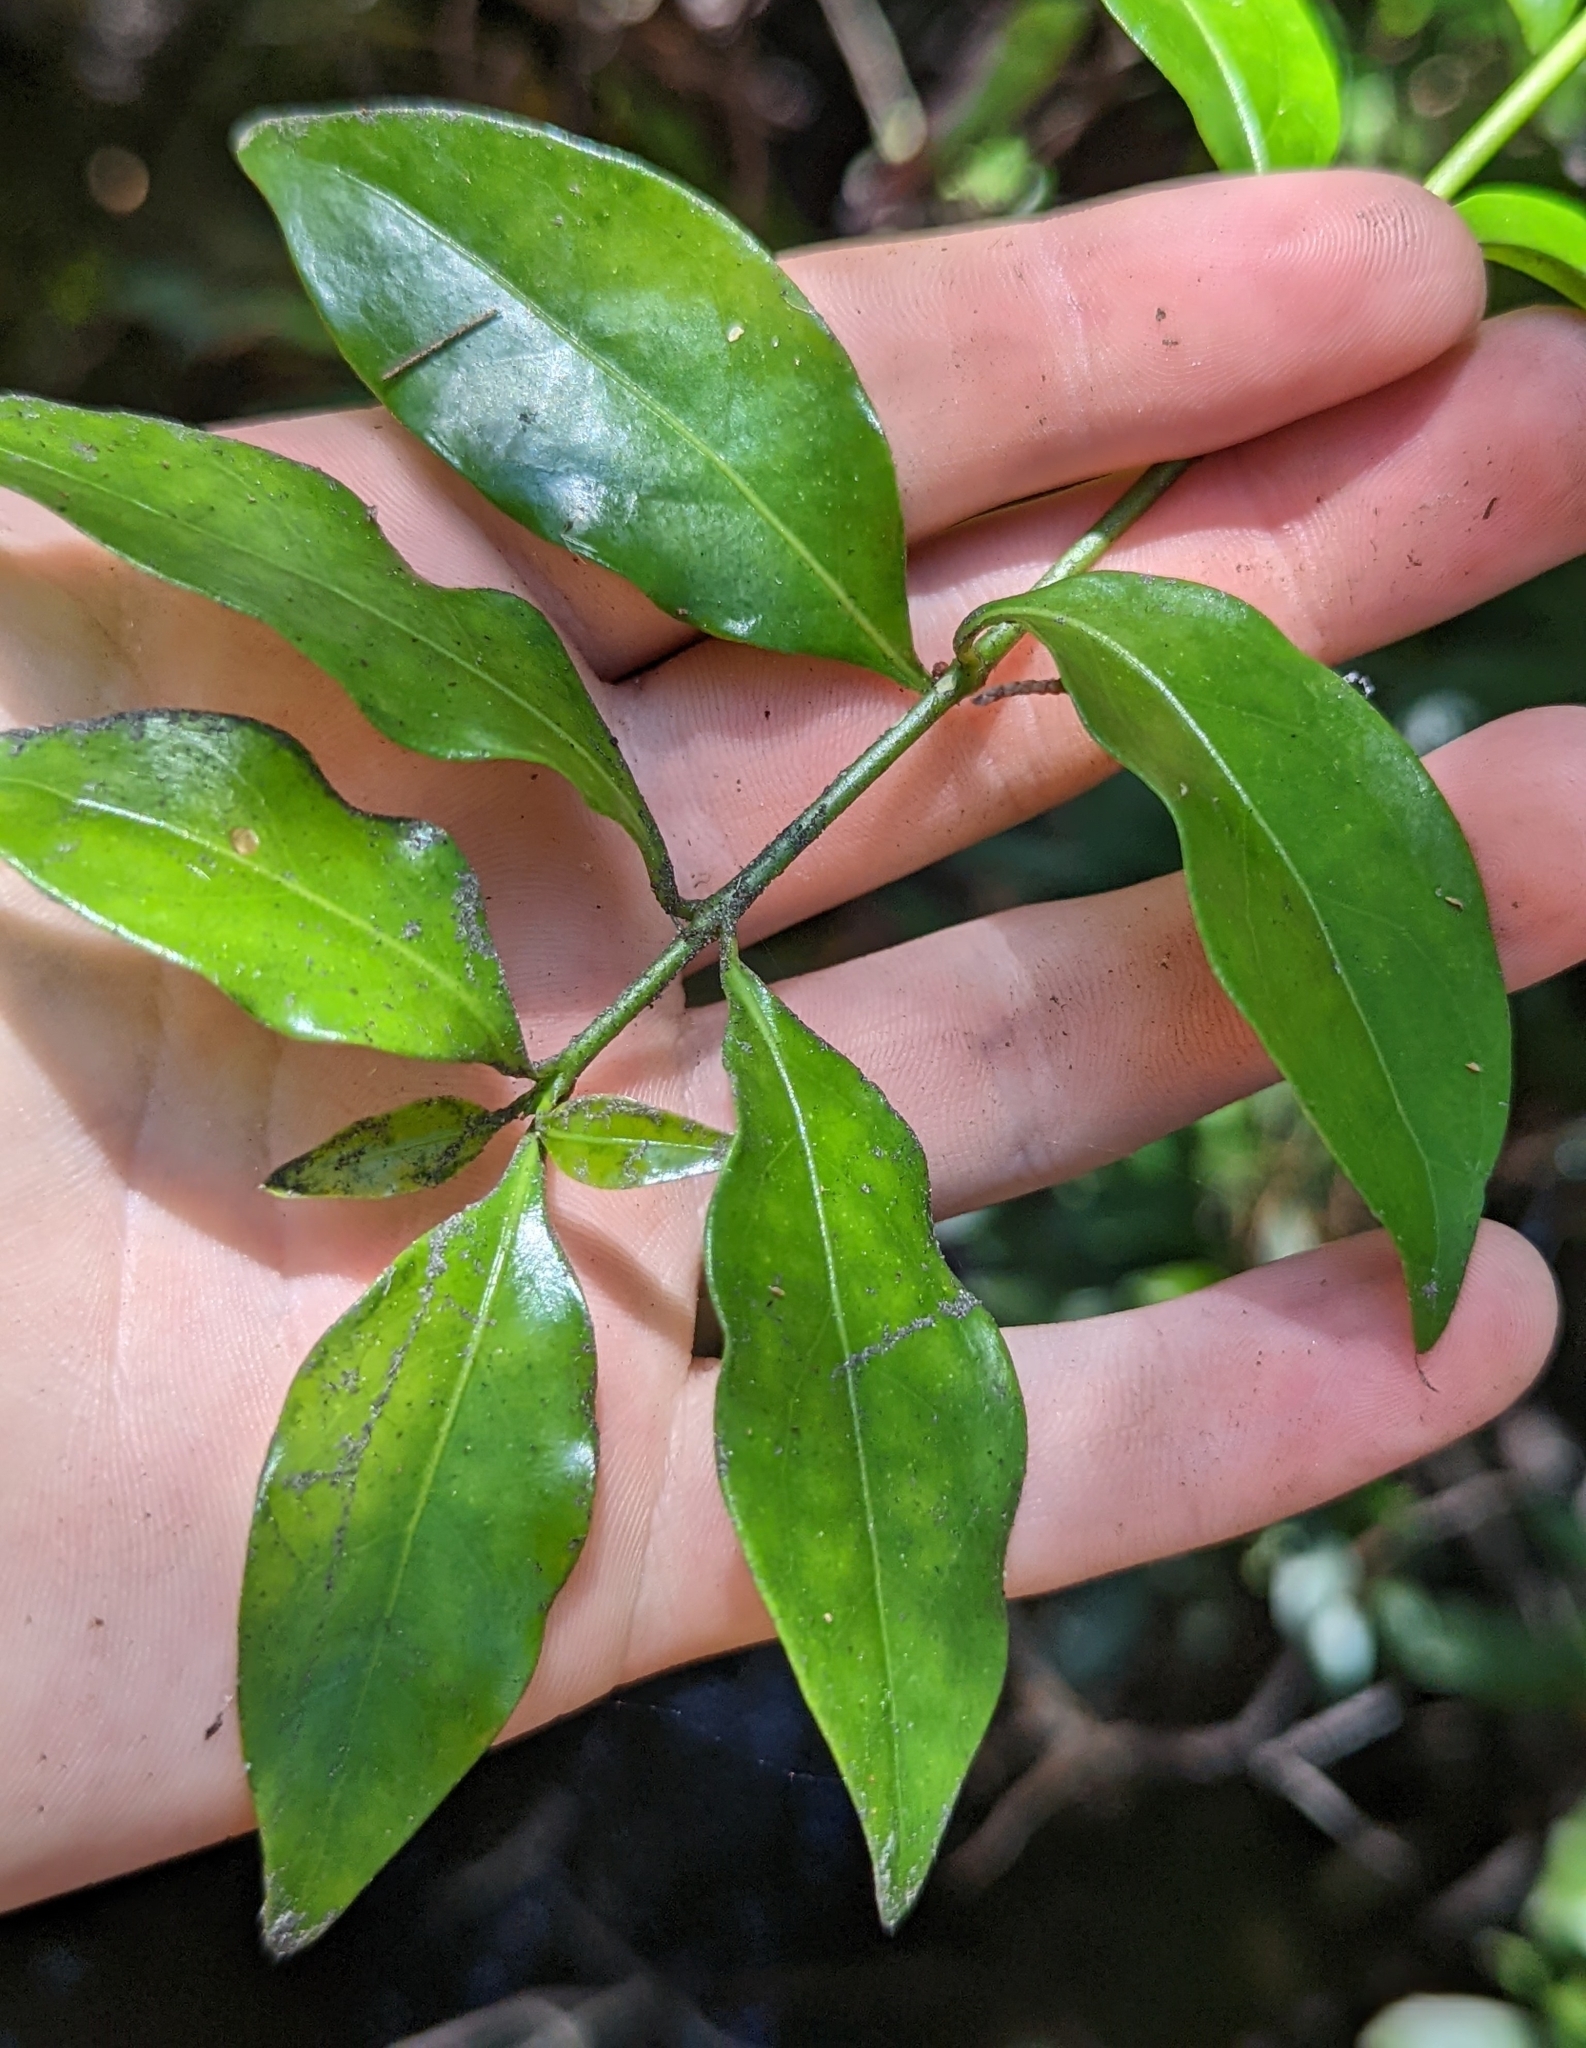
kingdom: Plantae
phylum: Tracheophyta
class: Magnoliopsida
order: Gentianales
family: Rubiaceae
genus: Chiococca
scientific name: Chiococca alba
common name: Snowberry
